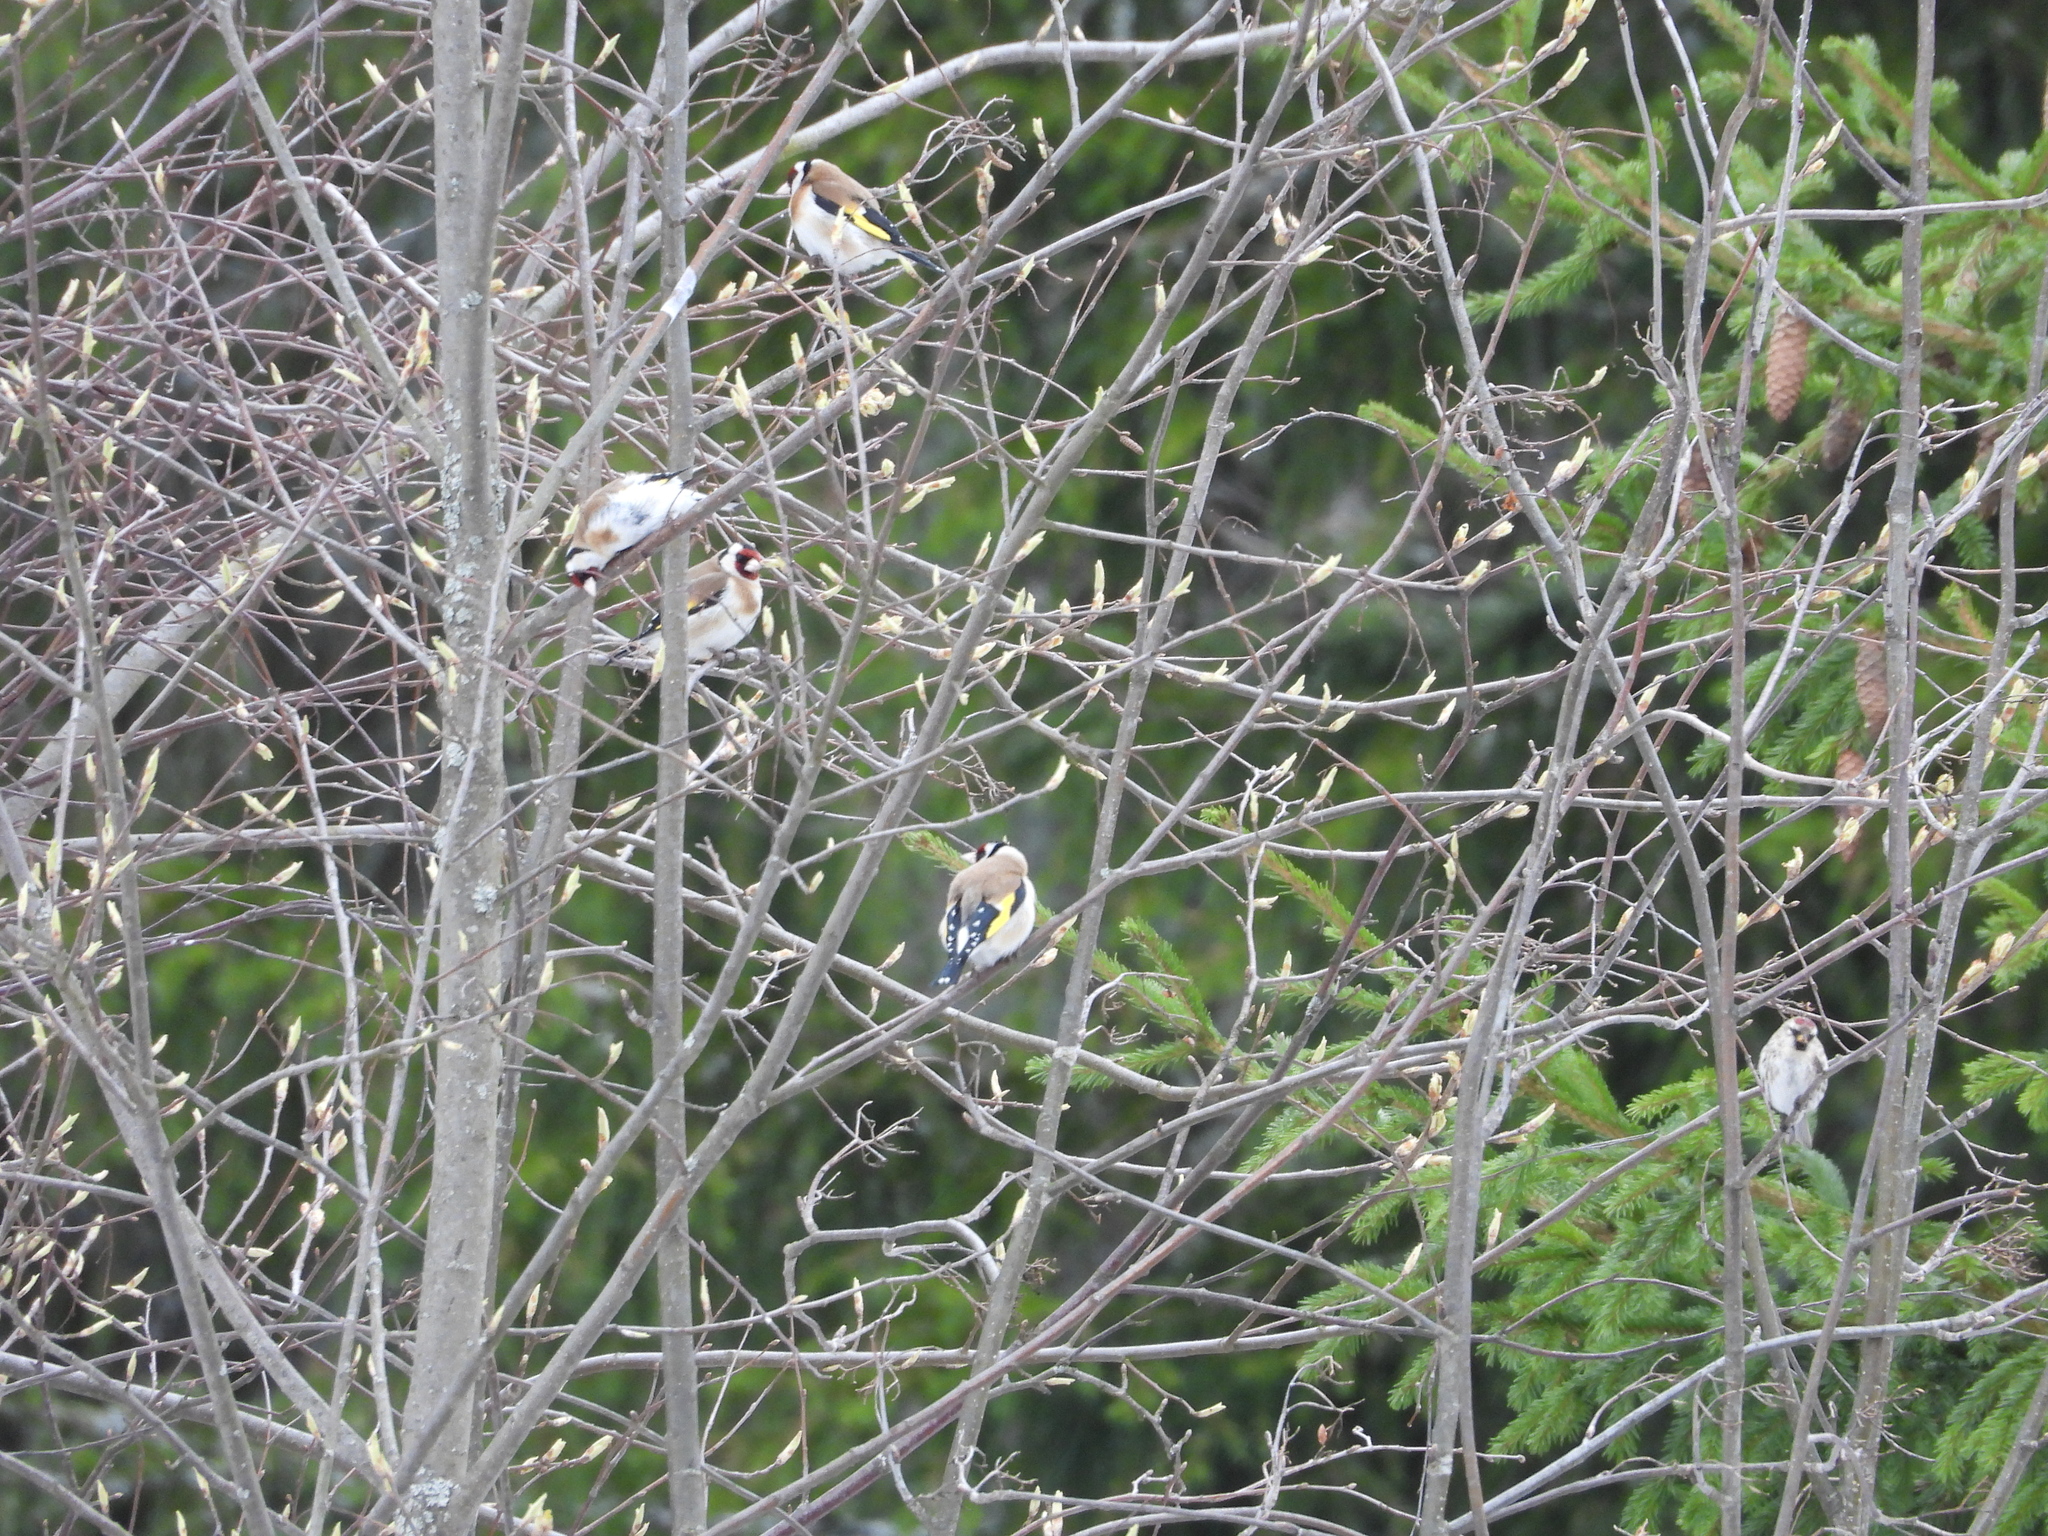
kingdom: Animalia
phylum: Chordata
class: Aves
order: Passeriformes
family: Fringillidae
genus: Carduelis
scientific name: Carduelis carduelis
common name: European goldfinch
